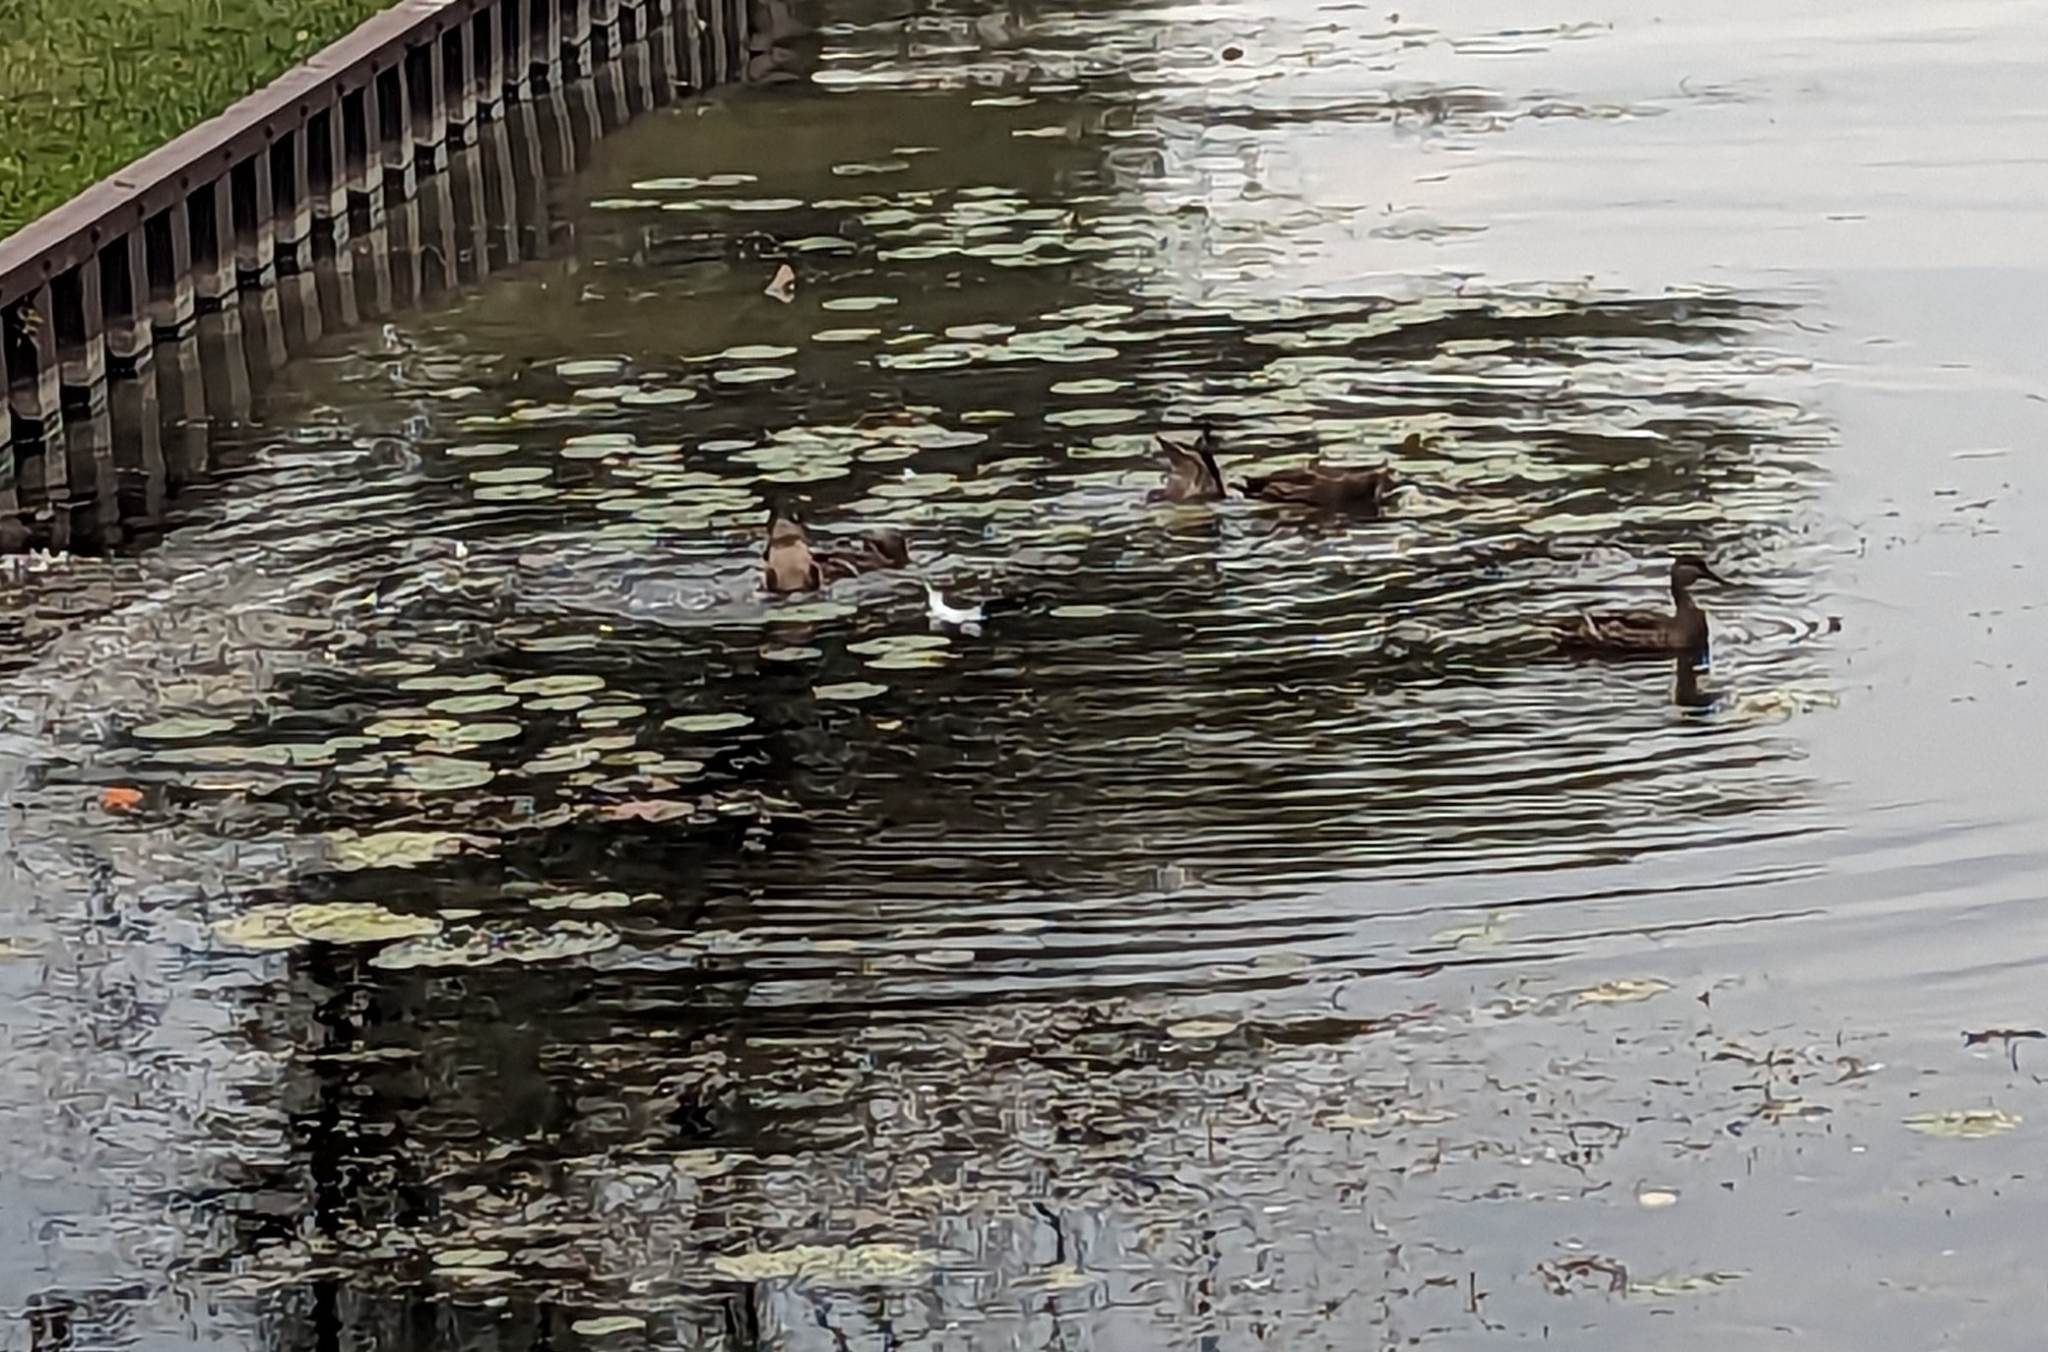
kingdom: Animalia
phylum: Chordata
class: Aves
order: Anseriformes
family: Anatidae
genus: Anas
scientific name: Anas platyrhynchos
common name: Mallard
